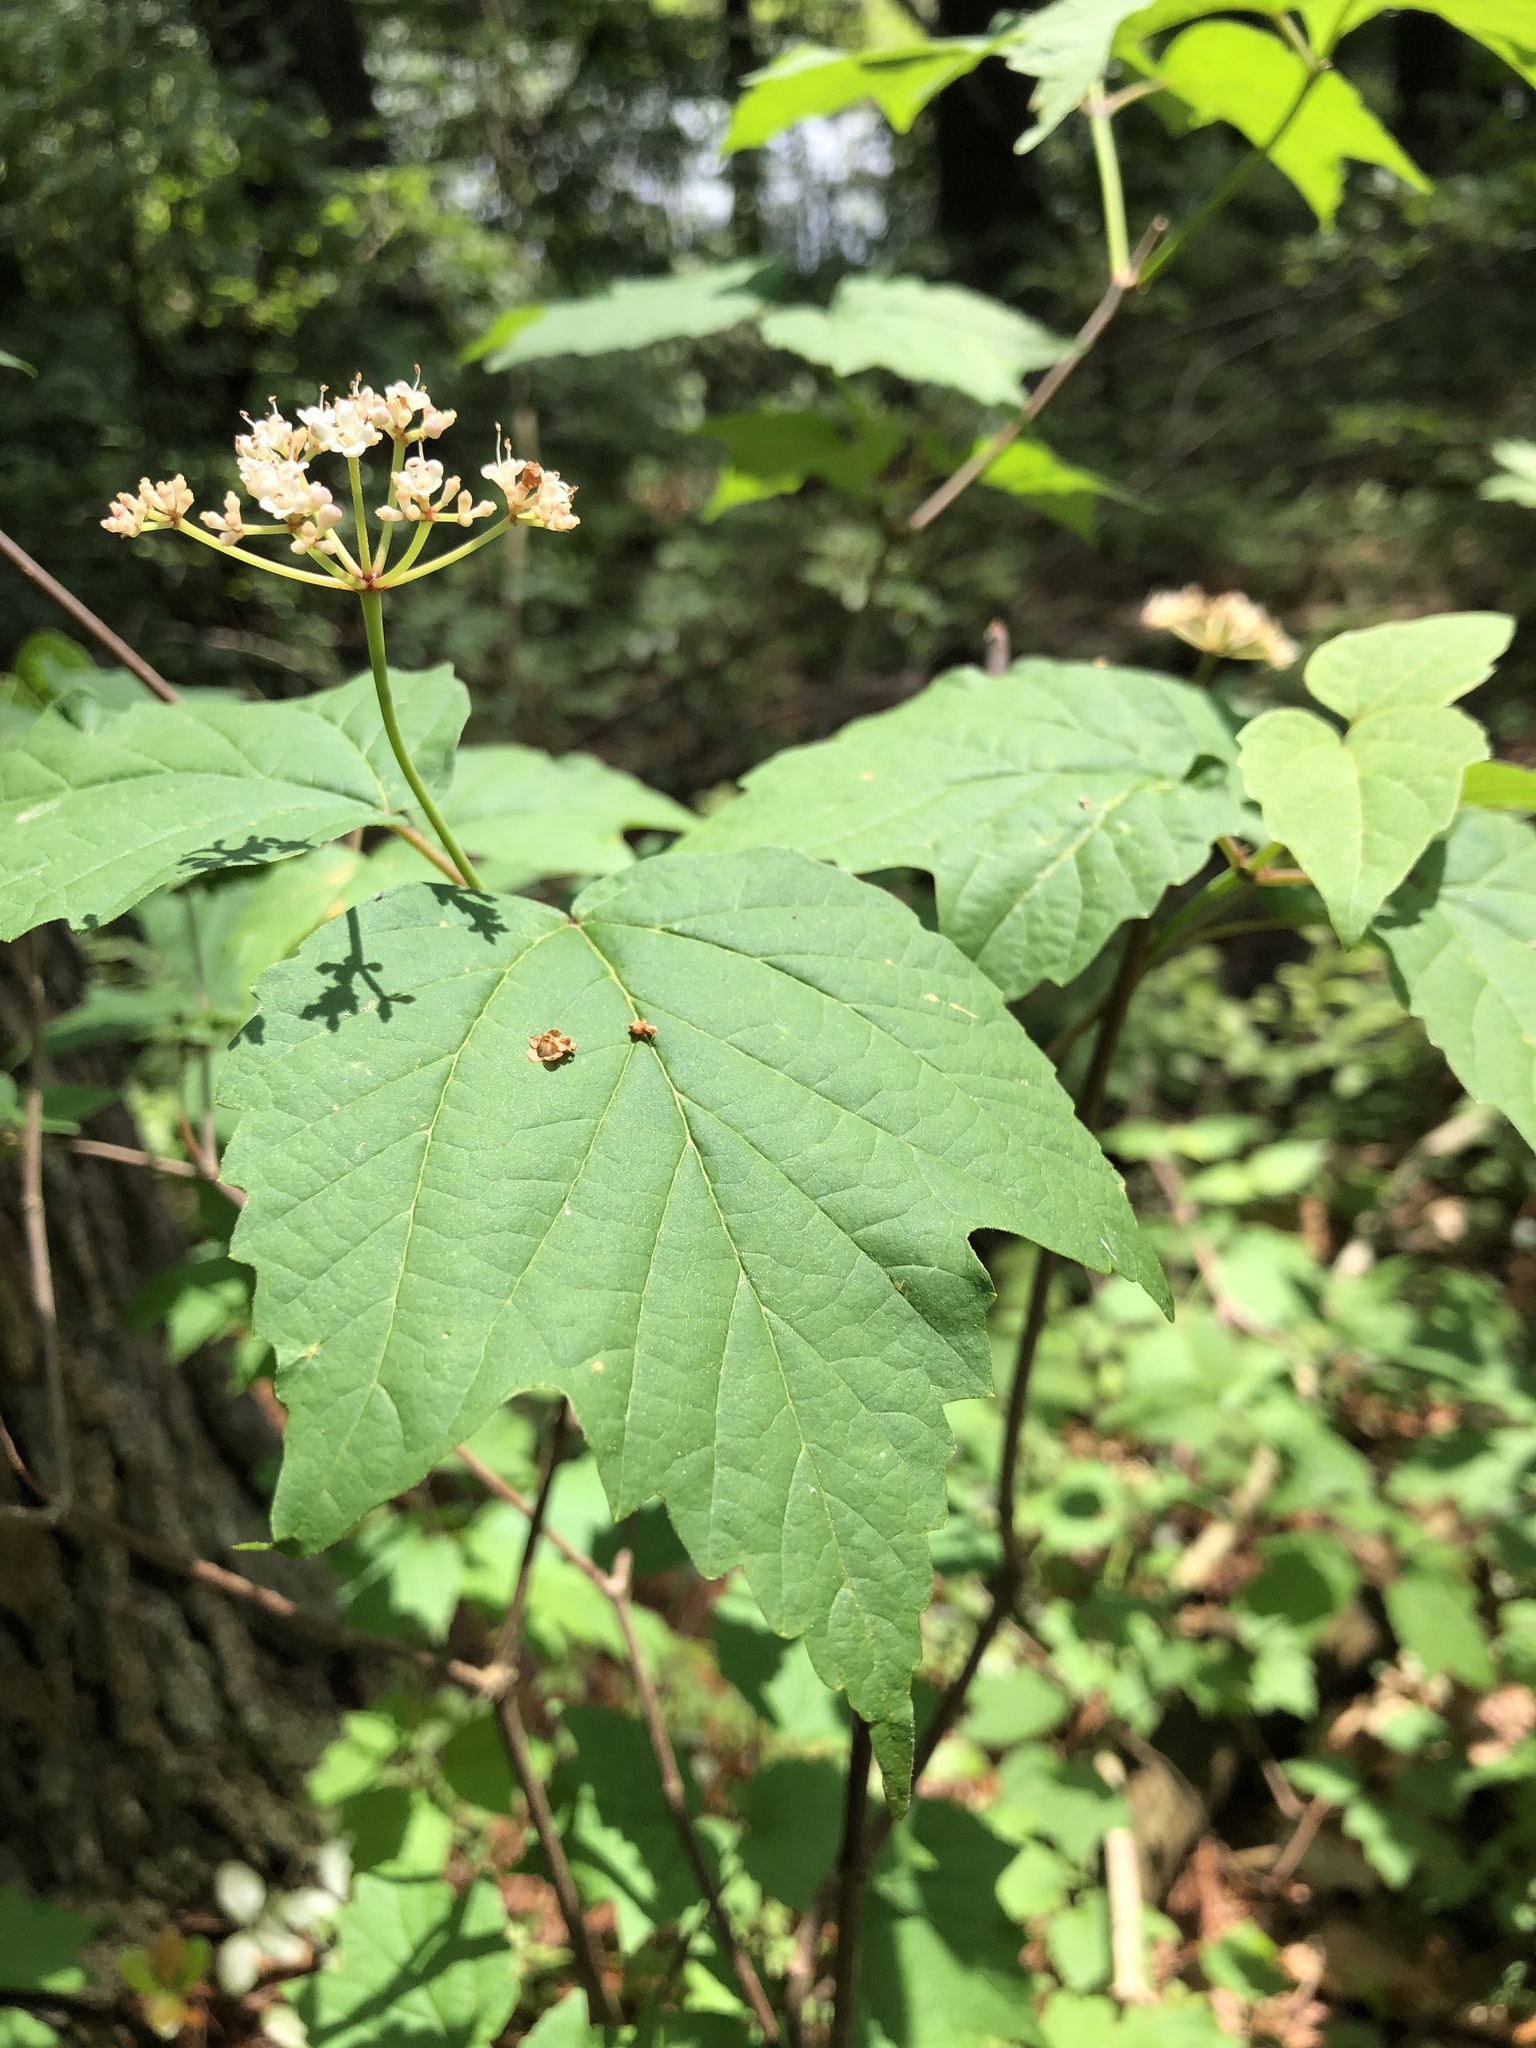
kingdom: Plantae
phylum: Tracheophyta
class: Magnoliopsida
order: Dipsacales
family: Viburnaceae
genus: Viburnum
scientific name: Viburnum acerifolium
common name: Dockmackie
